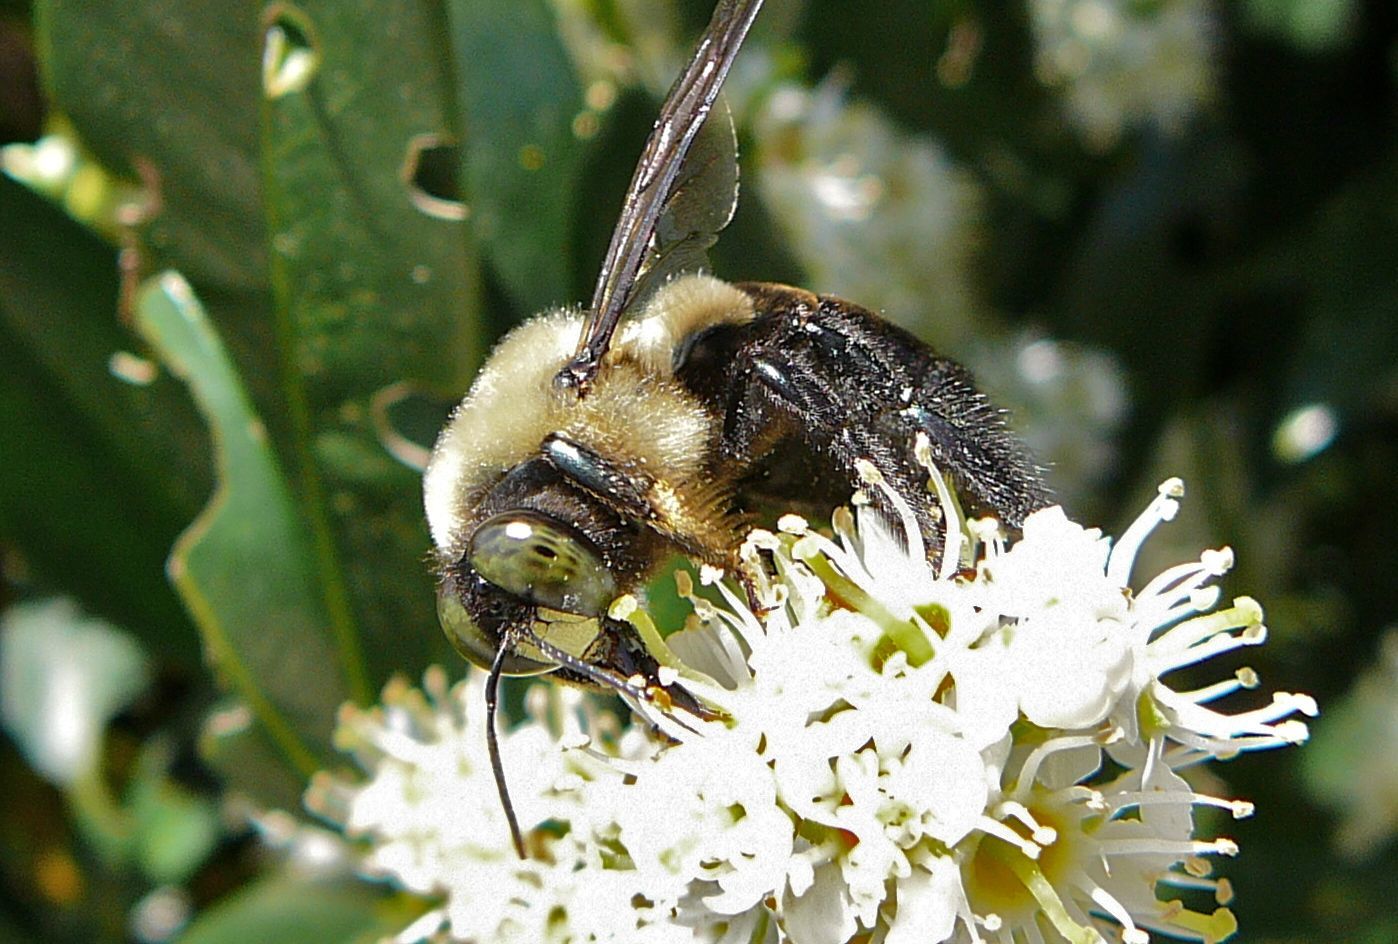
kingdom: Animalia
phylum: Arthropoda
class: Insecta
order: Hymenoptera
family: Apidae
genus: Xylocopa
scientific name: Xylocopa virginica
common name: Carpenter bee
